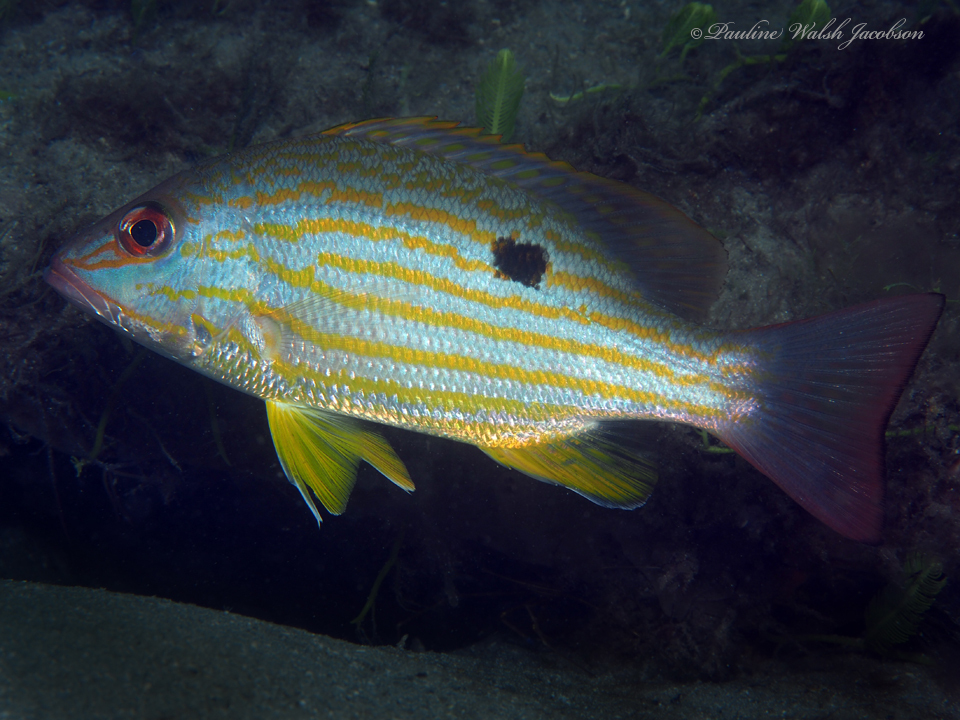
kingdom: Animalia
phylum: Chordata
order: Perciformes
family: Lutjanidae
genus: Lutjanus
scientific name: Lutjanus synagris
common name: Lane snapper
